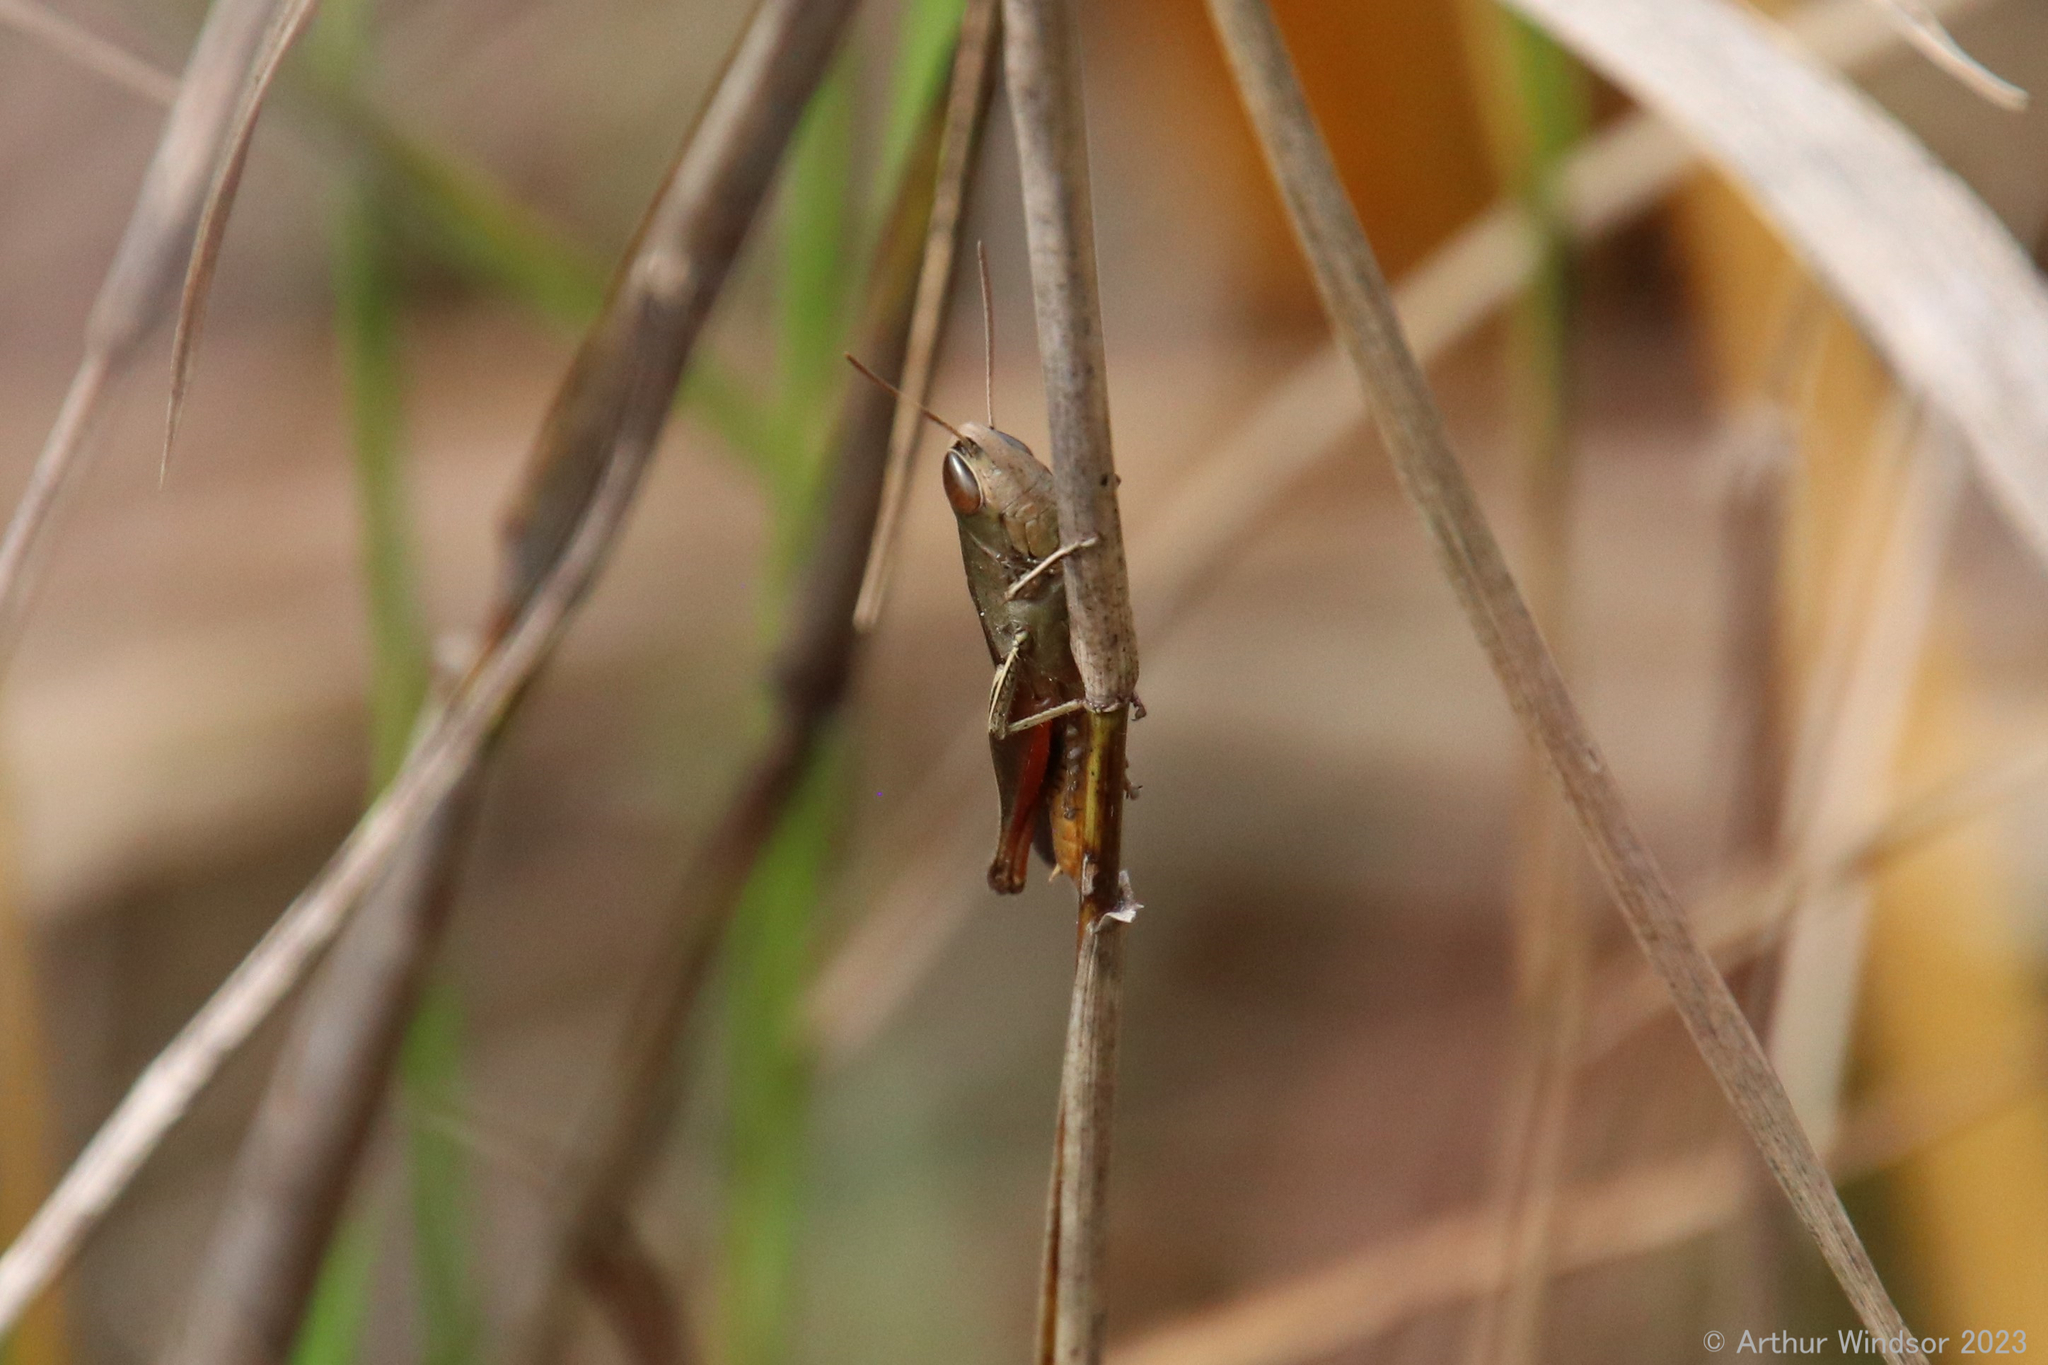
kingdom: Animalia
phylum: Arthropoda
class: Insecta
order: Orthoptera
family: Acrididae
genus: Amblytropidia
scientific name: Amblytropidia mysteca
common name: Brown winter grasshopper
